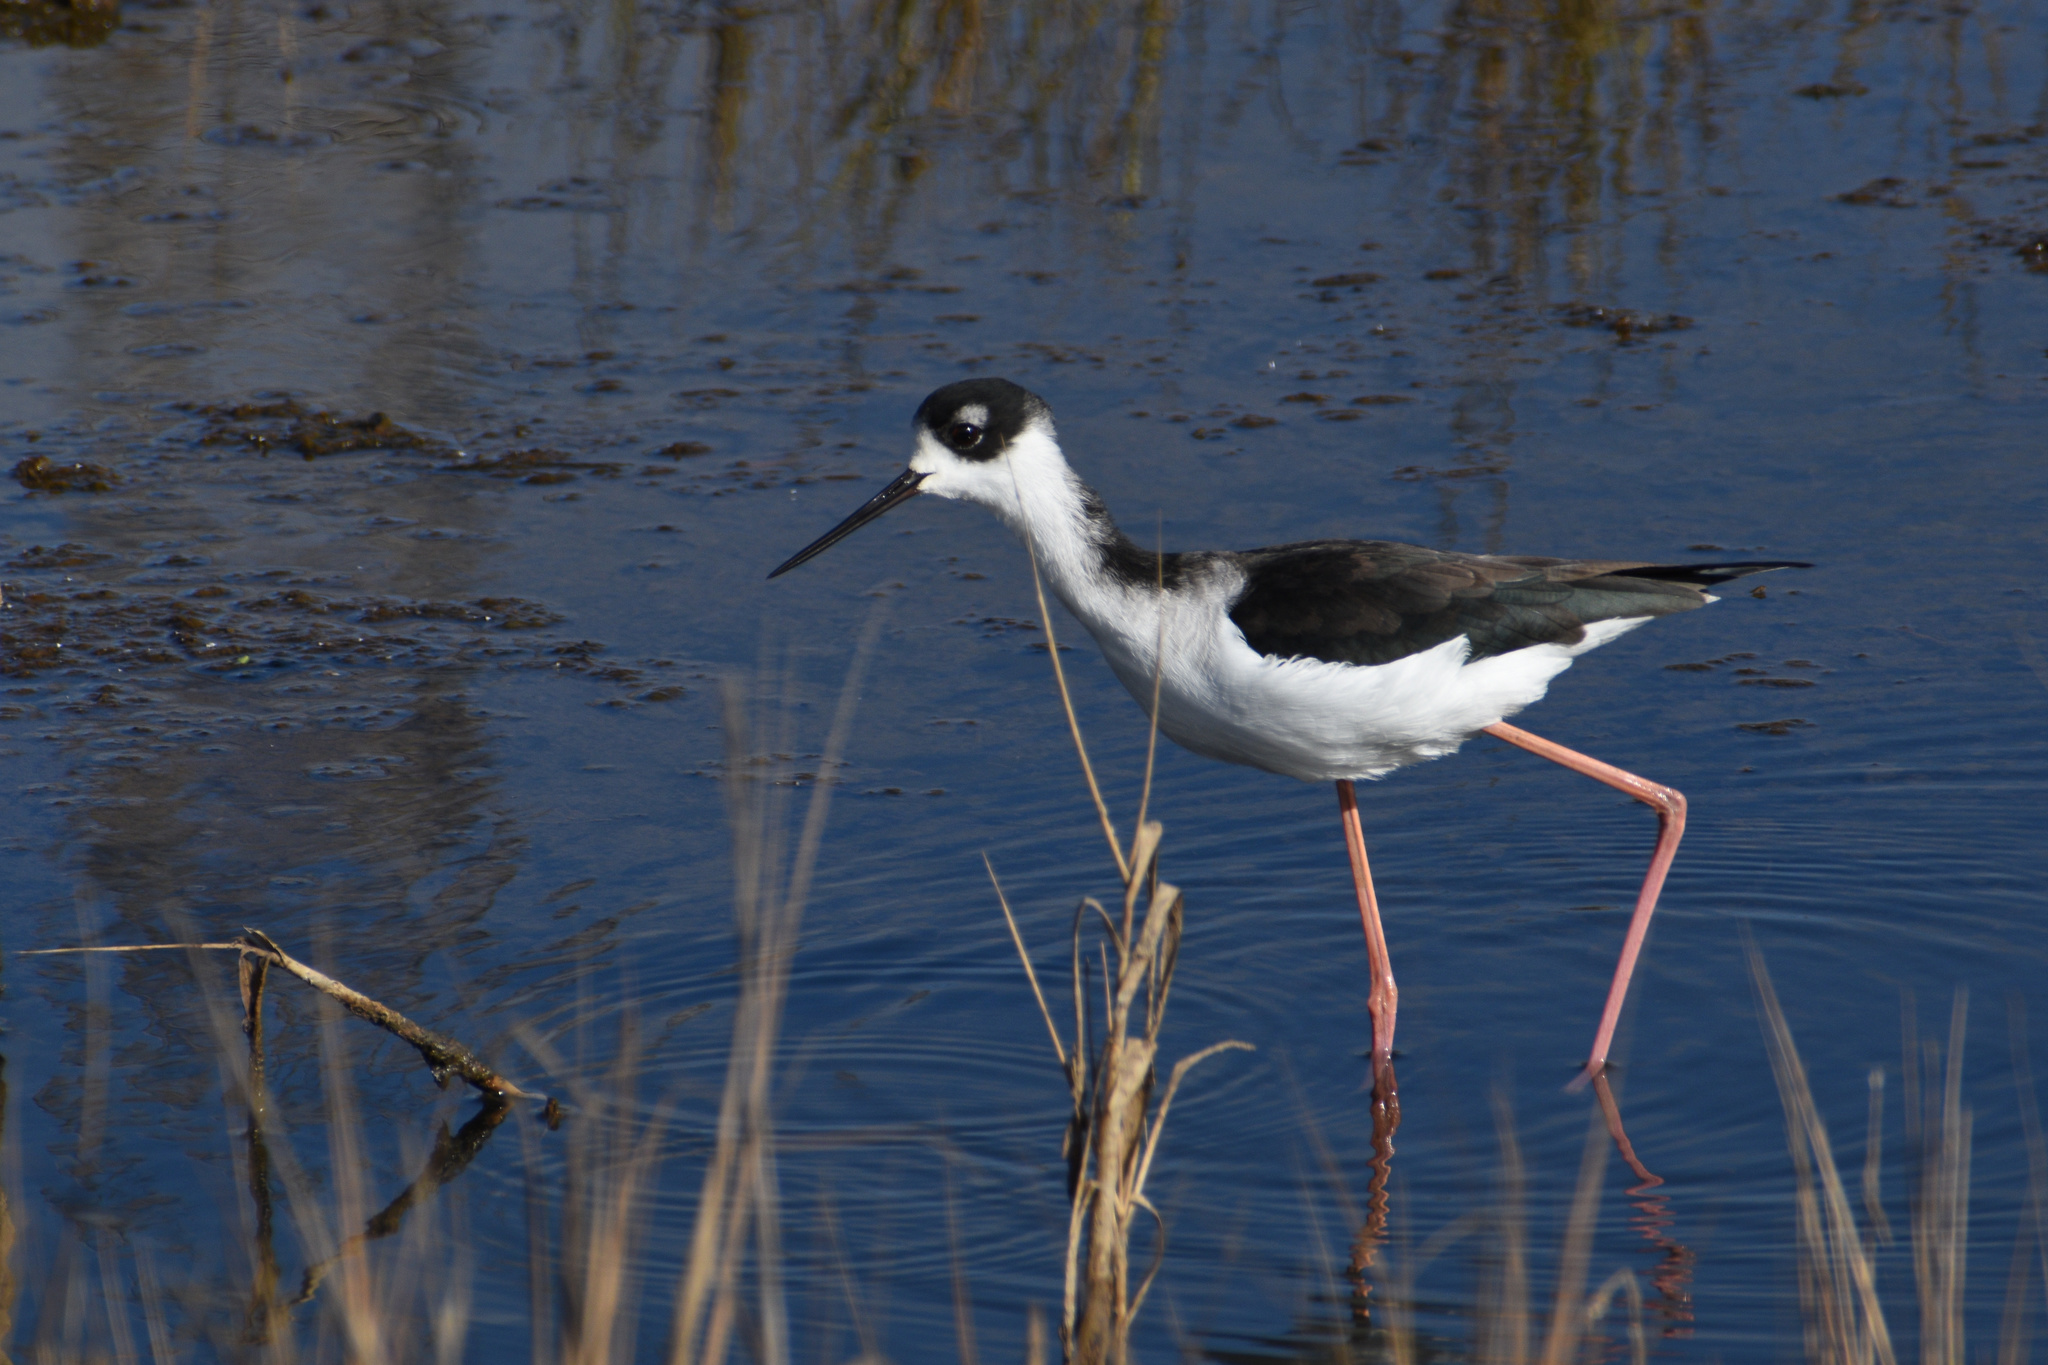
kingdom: Animalia
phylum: Chordata
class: Aves
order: Charadriiformes
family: Recurvirostridae
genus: Himantopus
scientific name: Himantopus mexicanus
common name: Black-necked stilt
